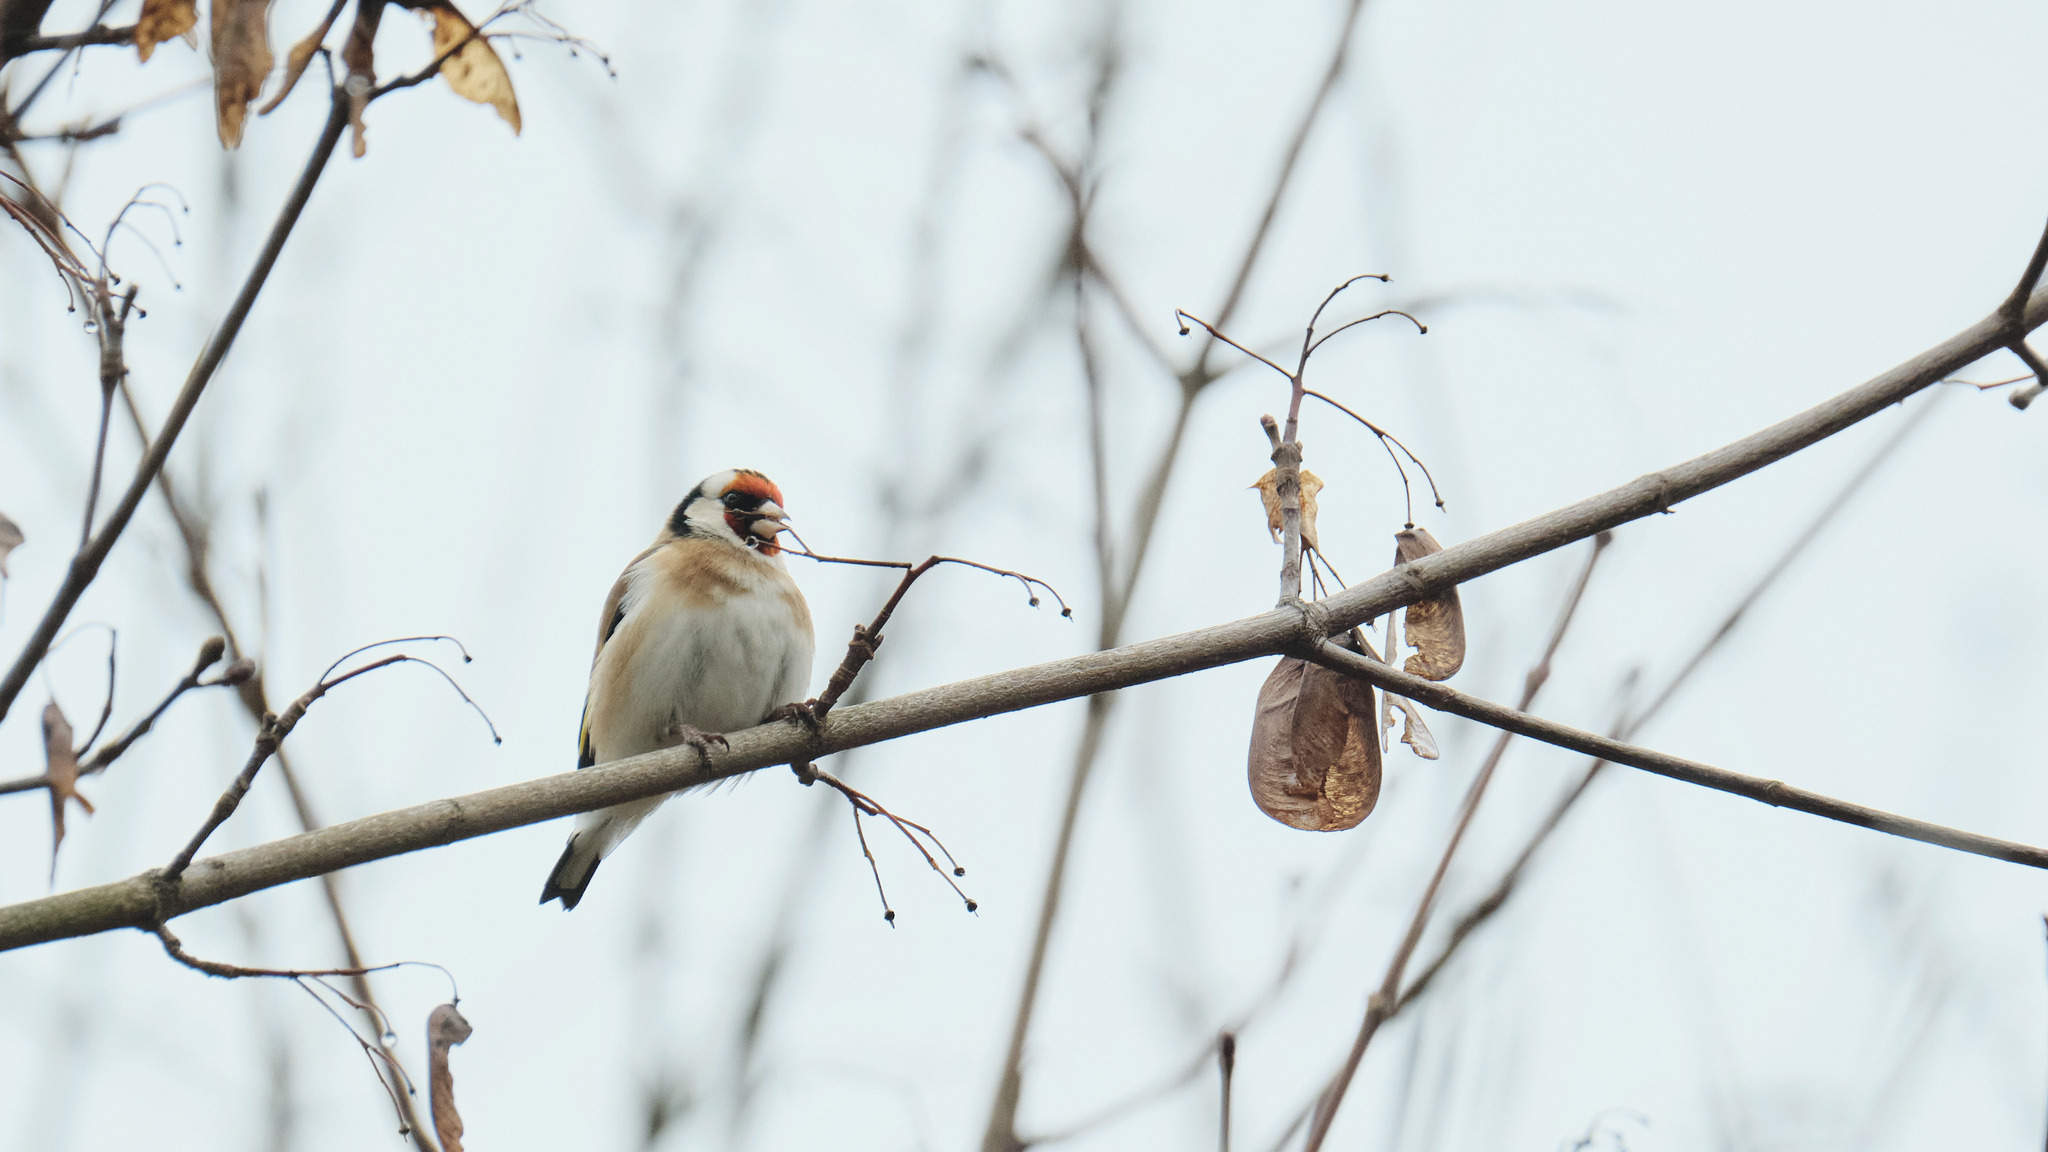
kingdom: Animalia
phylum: Chordata
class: Aves
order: Passeriformes
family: Fringillidae
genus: Carduelis
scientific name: Carduelis carduelis
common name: European goldfinch
